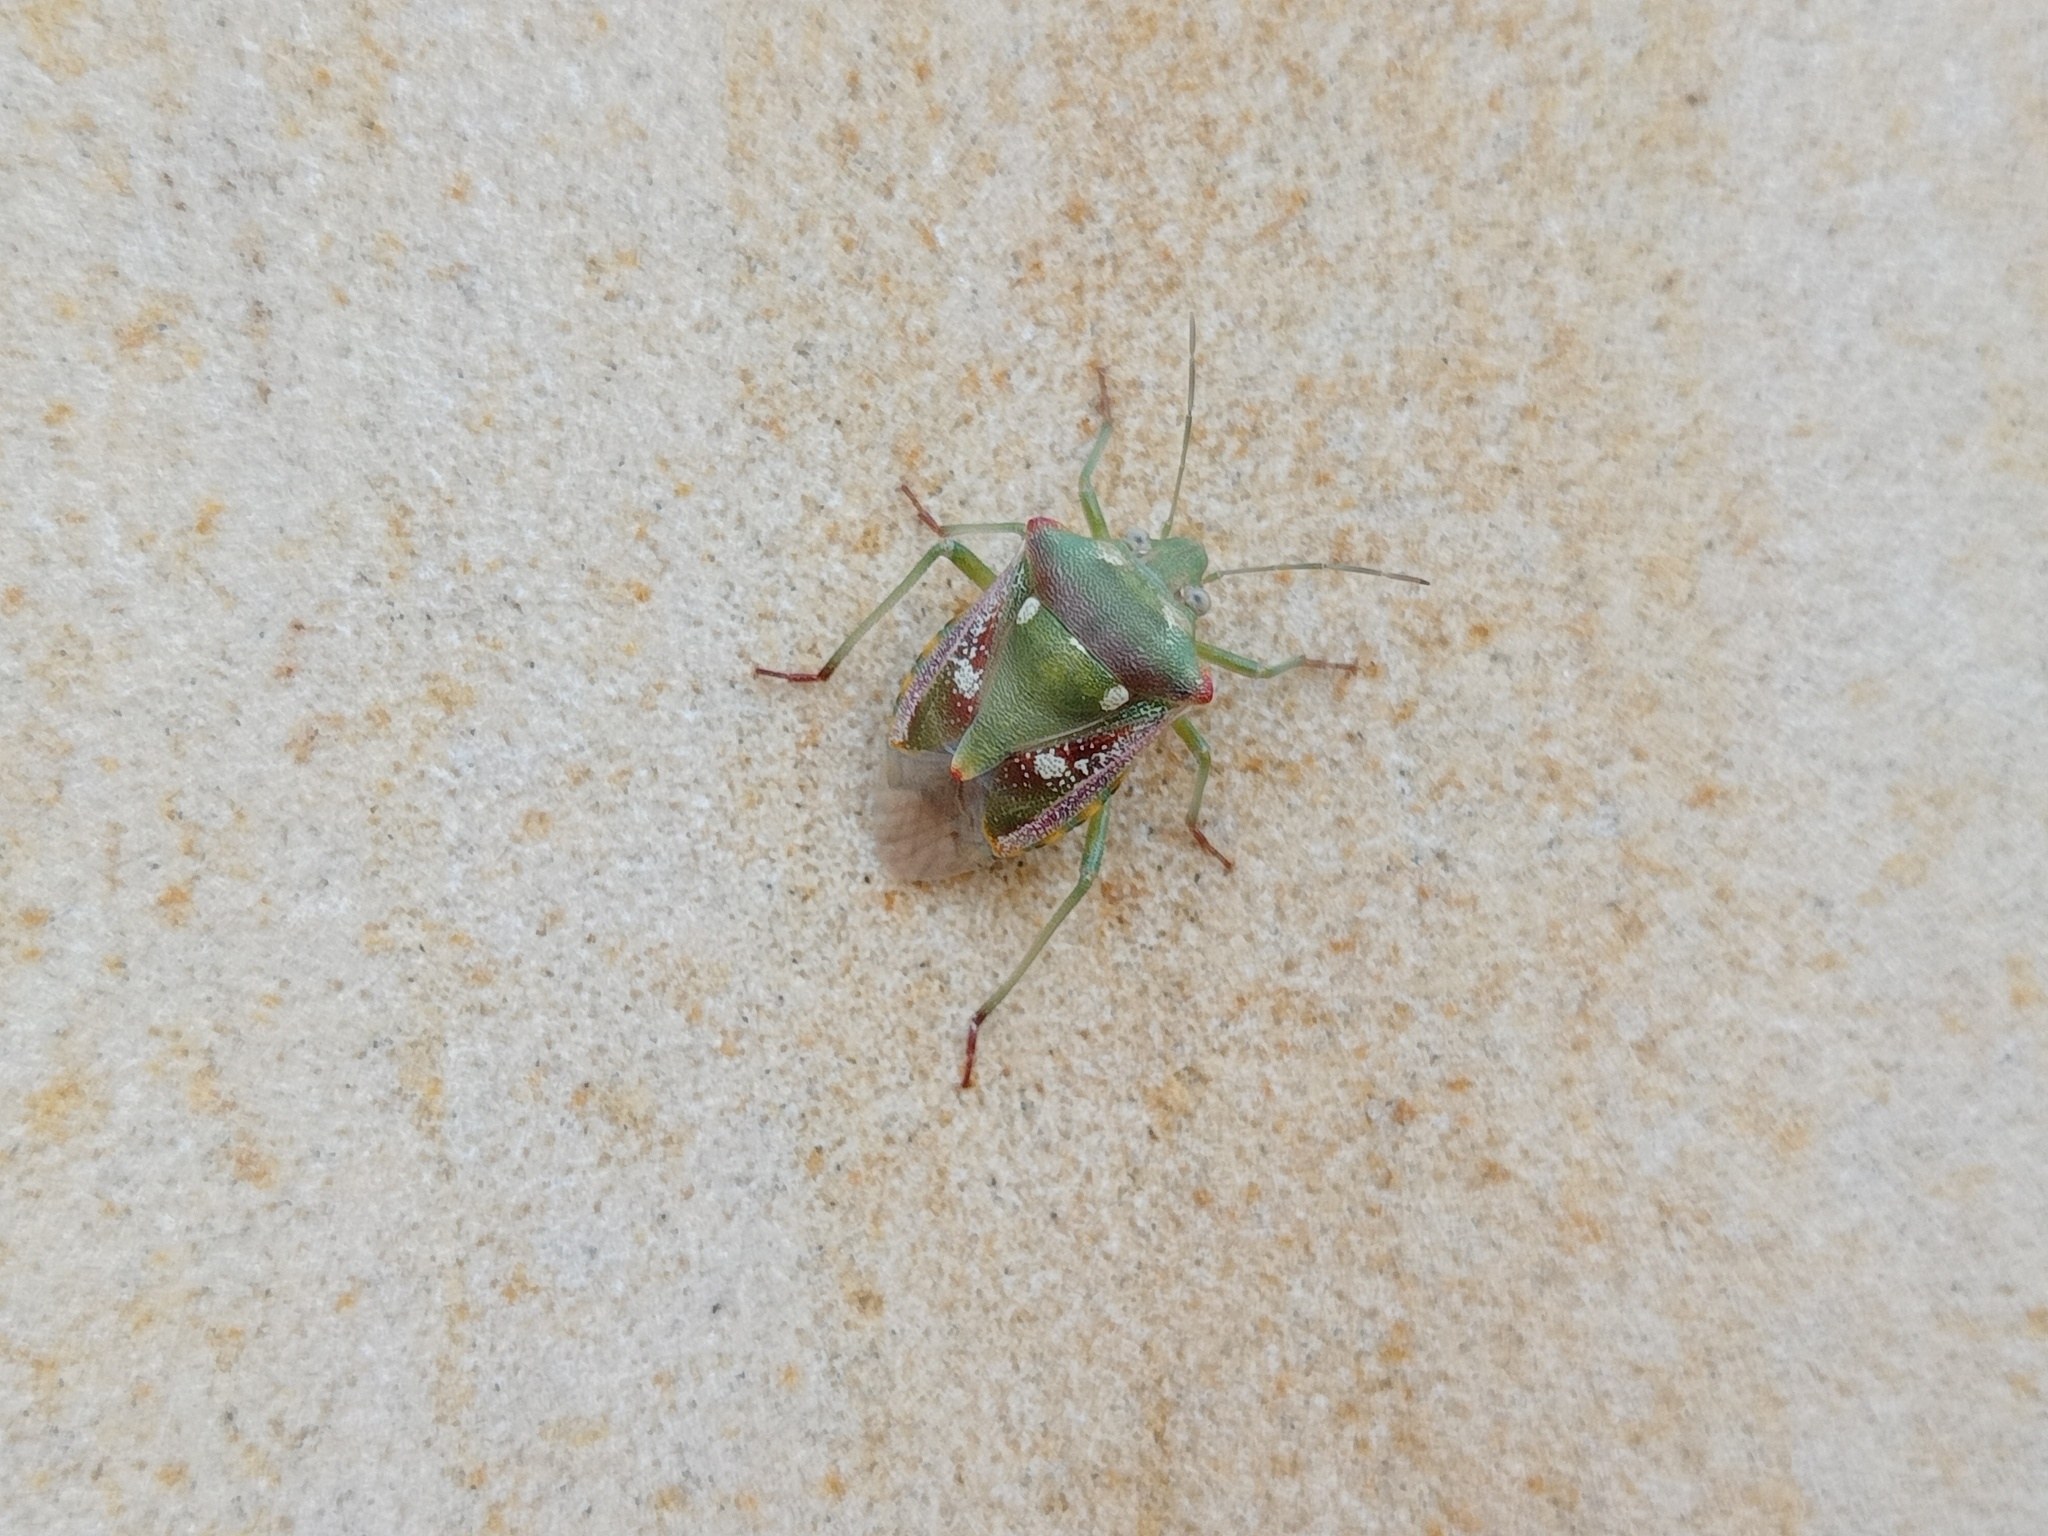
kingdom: Animalia
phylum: Arthropoda
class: Insecta
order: Hemiptera
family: Pentatomidae
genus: Croantha
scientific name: Croantha ornatula
